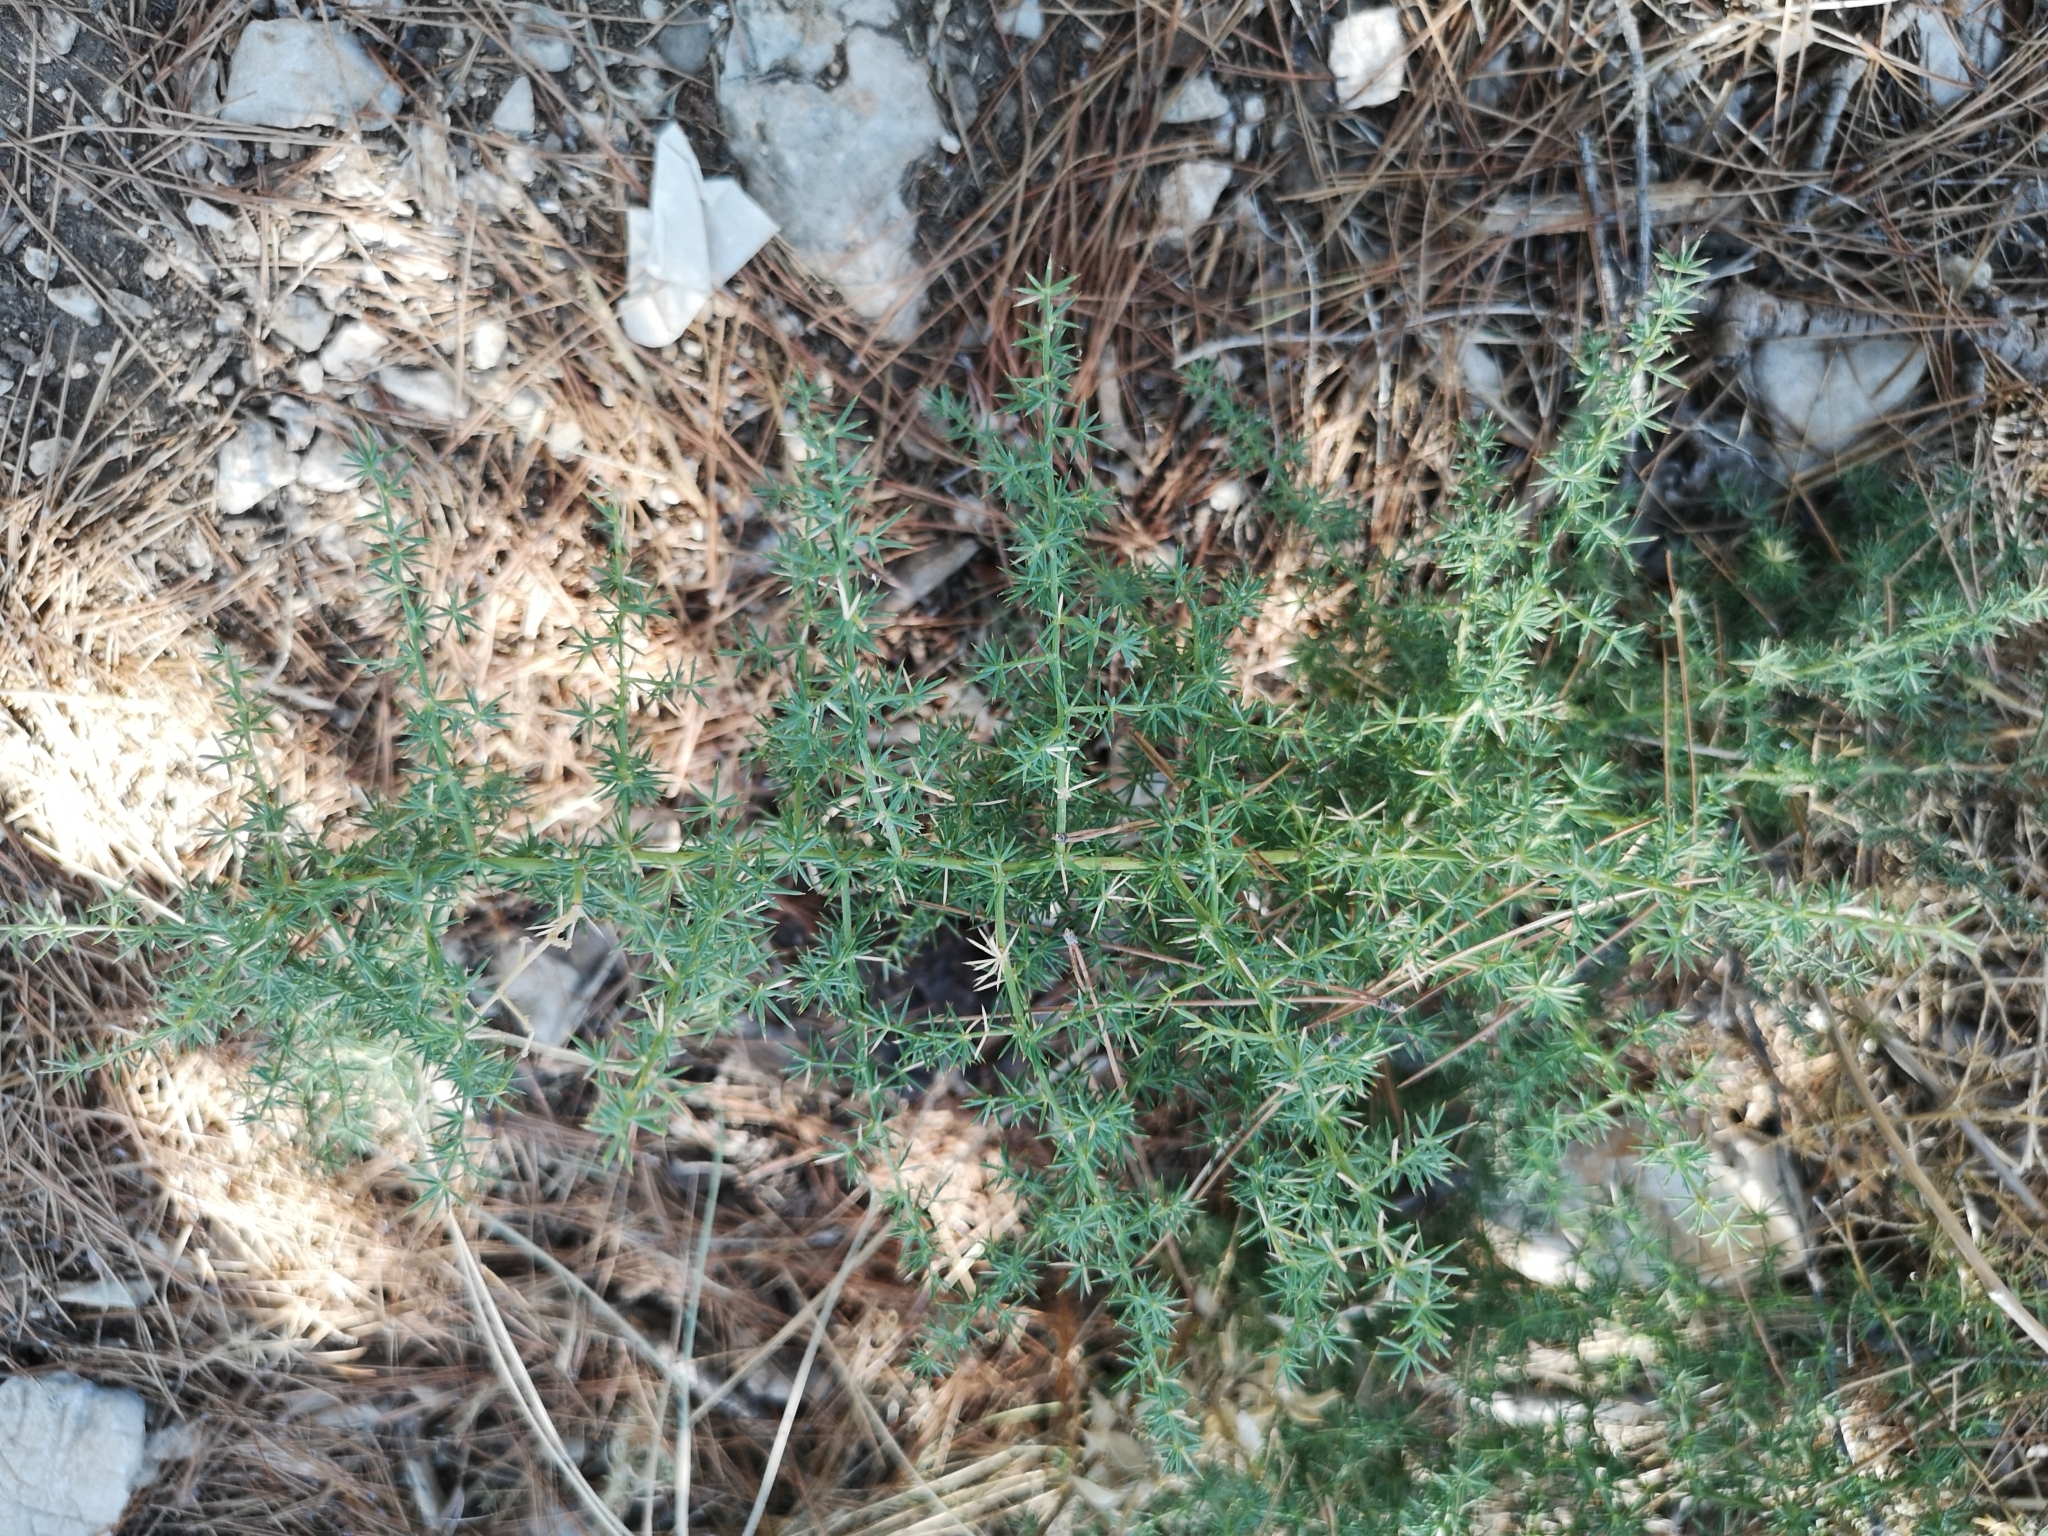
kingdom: Plantae
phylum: Tracheophyta
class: Liliopsida
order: Asparagales
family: Asparagaceae
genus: Asparagus
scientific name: Asparagus acutifolius
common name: Wild asparagus
